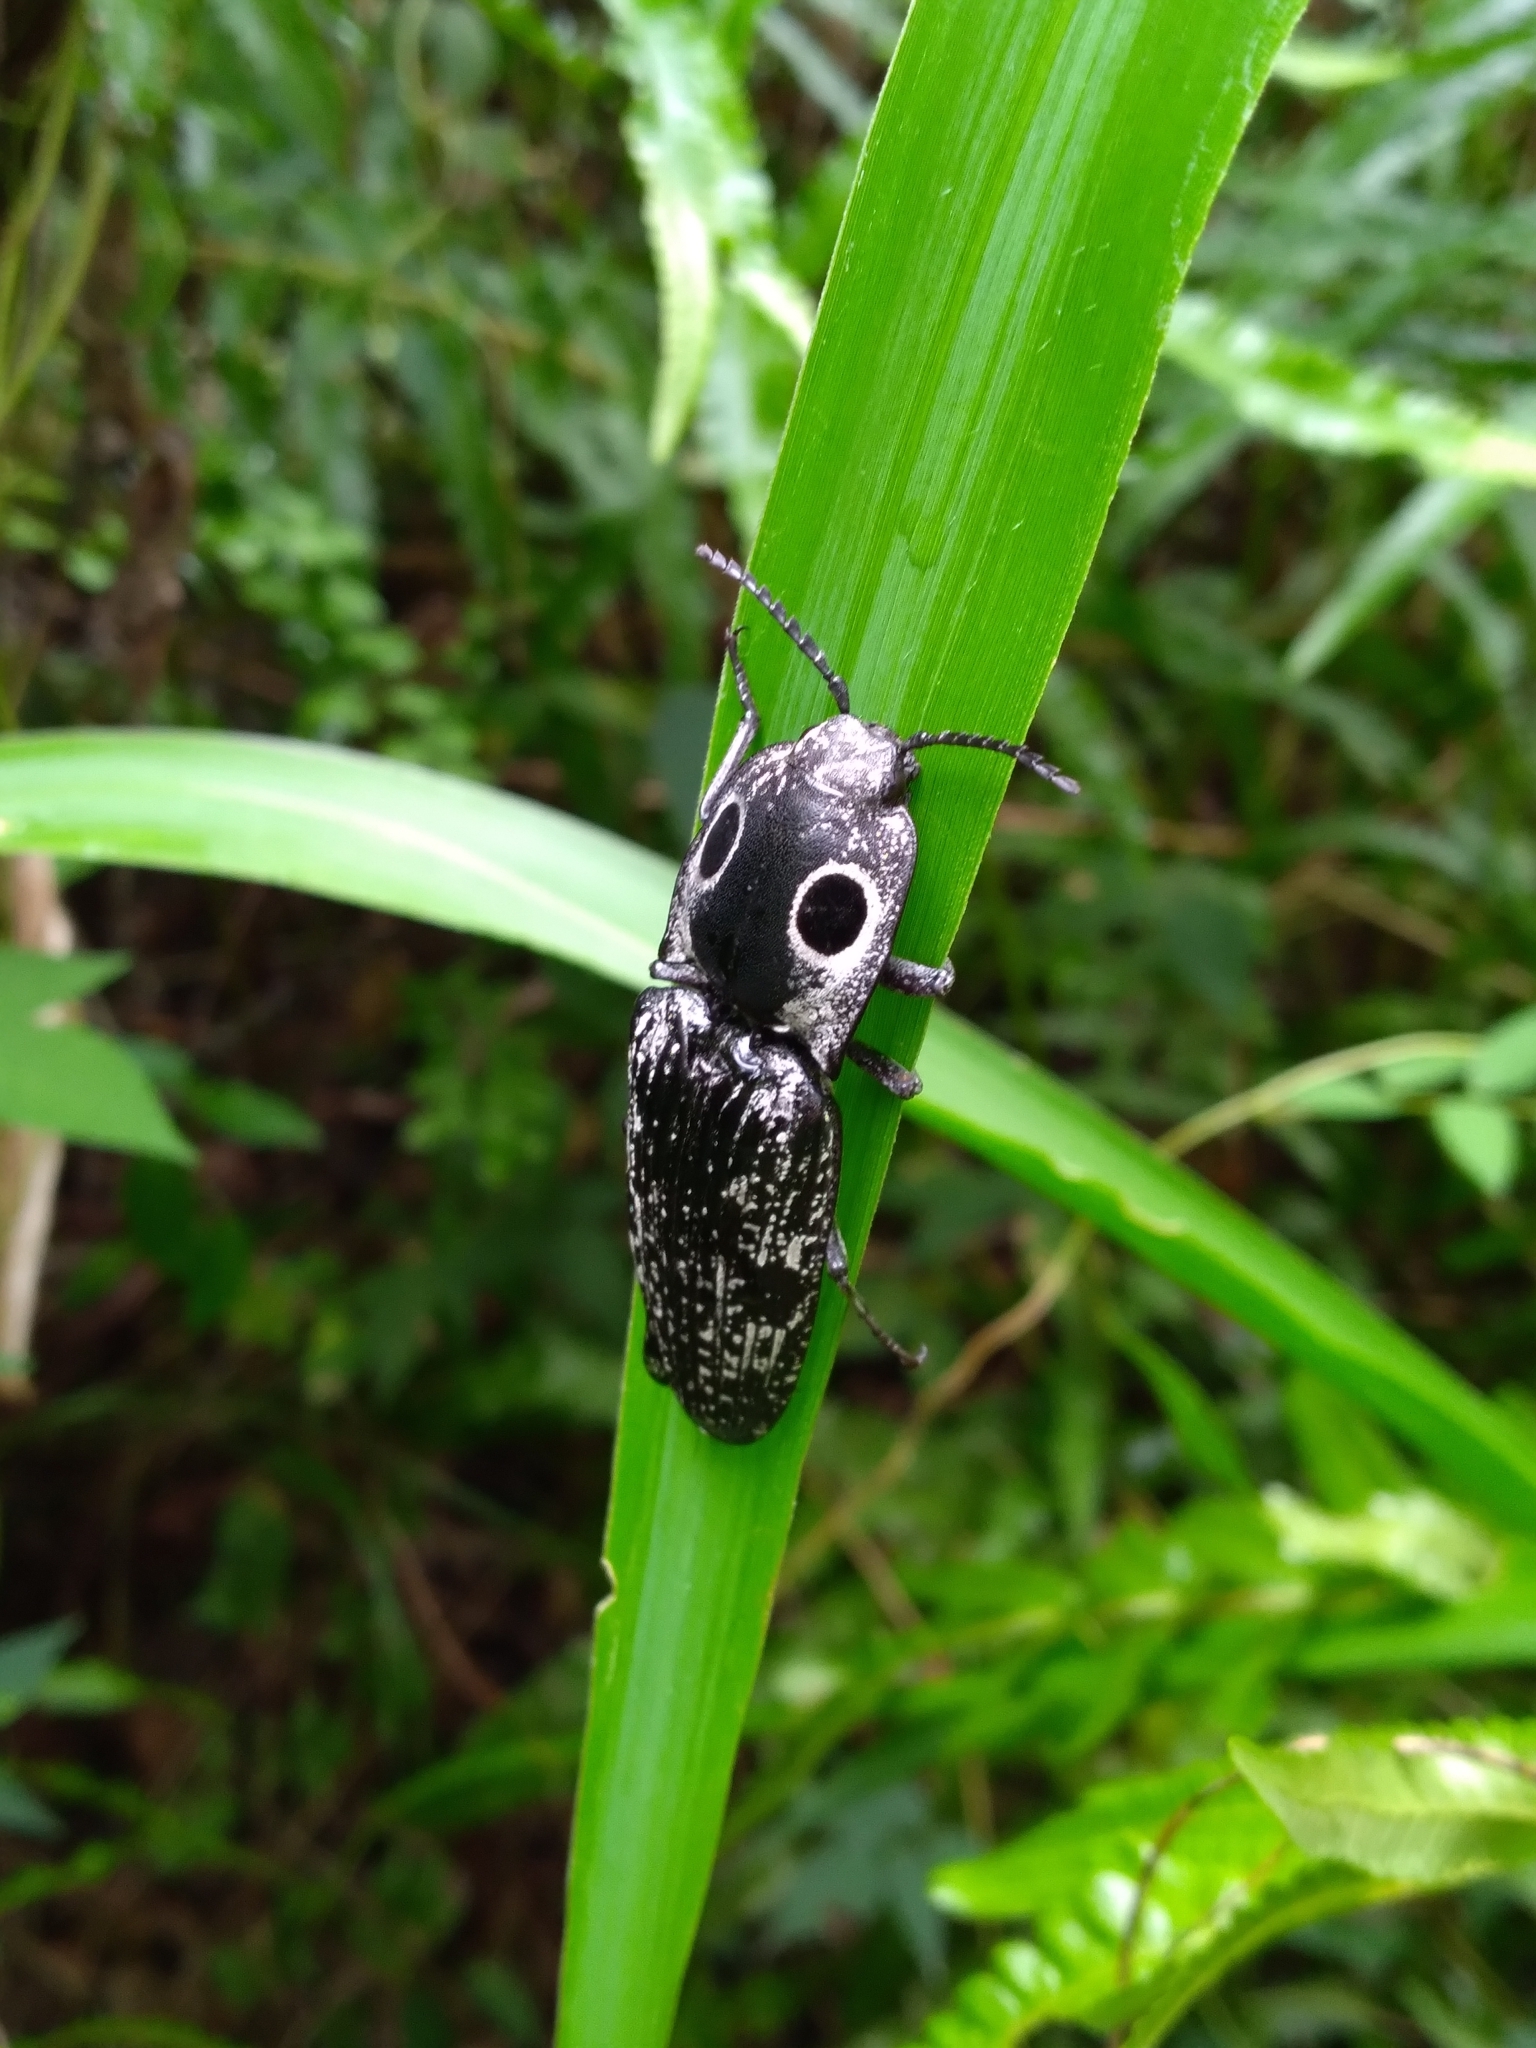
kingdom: Animalia
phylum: Arthropoda
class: Insecta
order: Coleoptera
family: Elateridae
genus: Alaus
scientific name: Alaus oculatus
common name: Eastern eyed click beetle
